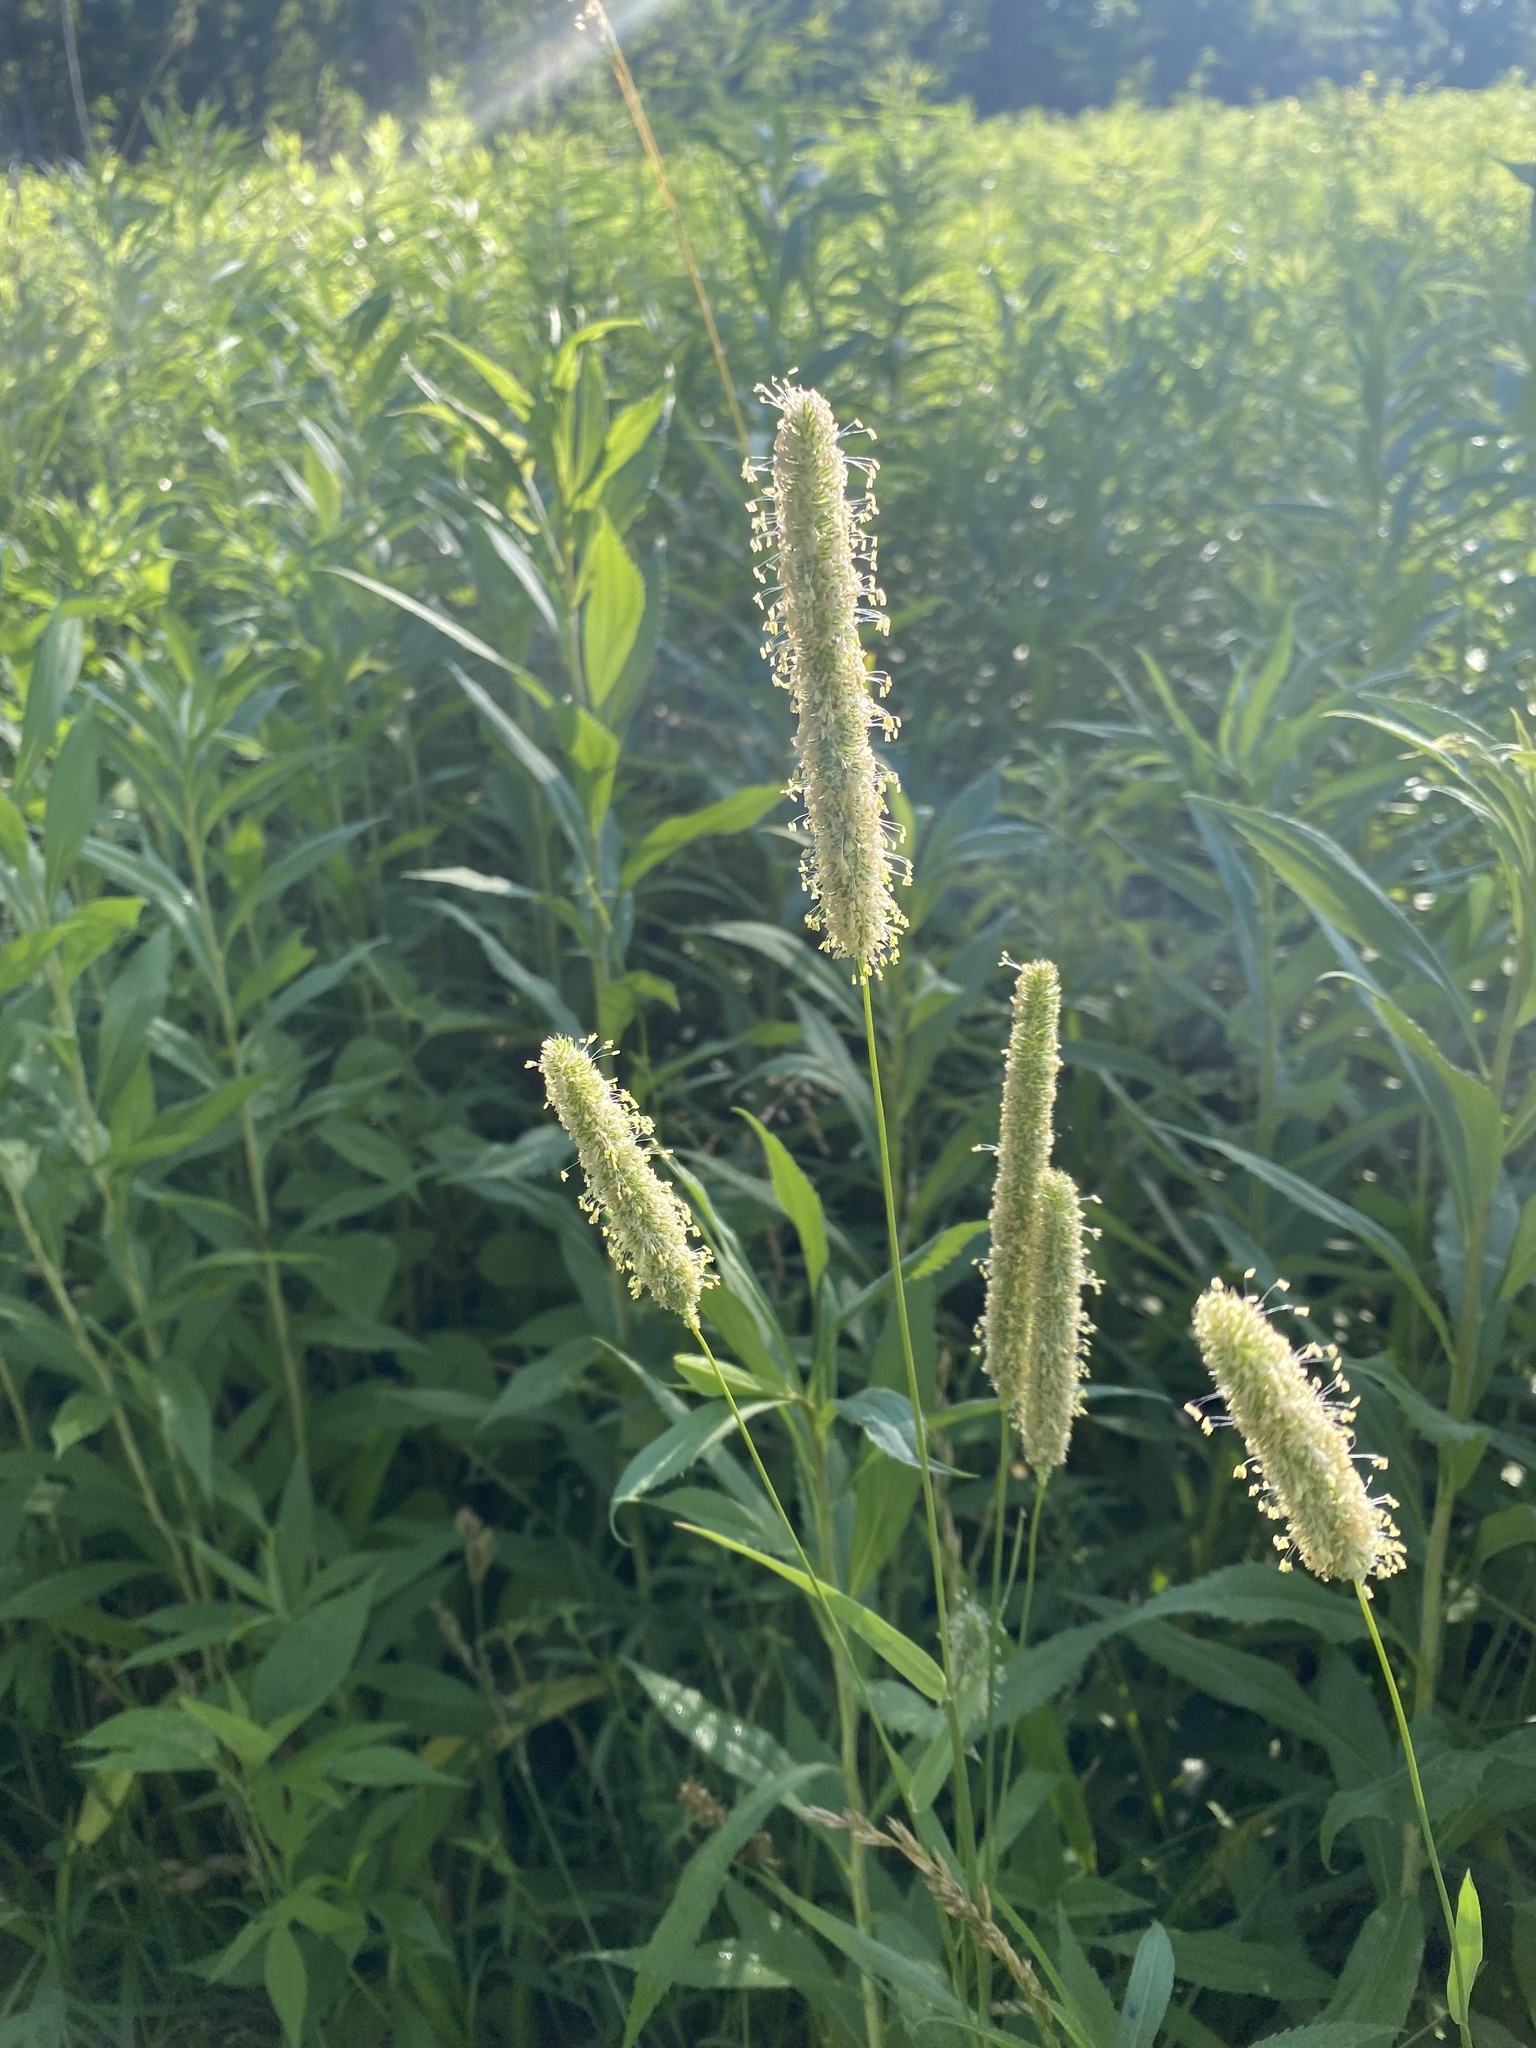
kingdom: Plantae
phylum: Tracheophyta
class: Liliopsida
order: Poales
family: Poaceae
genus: Phleum
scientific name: Phleum pratense
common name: Timothy grass
